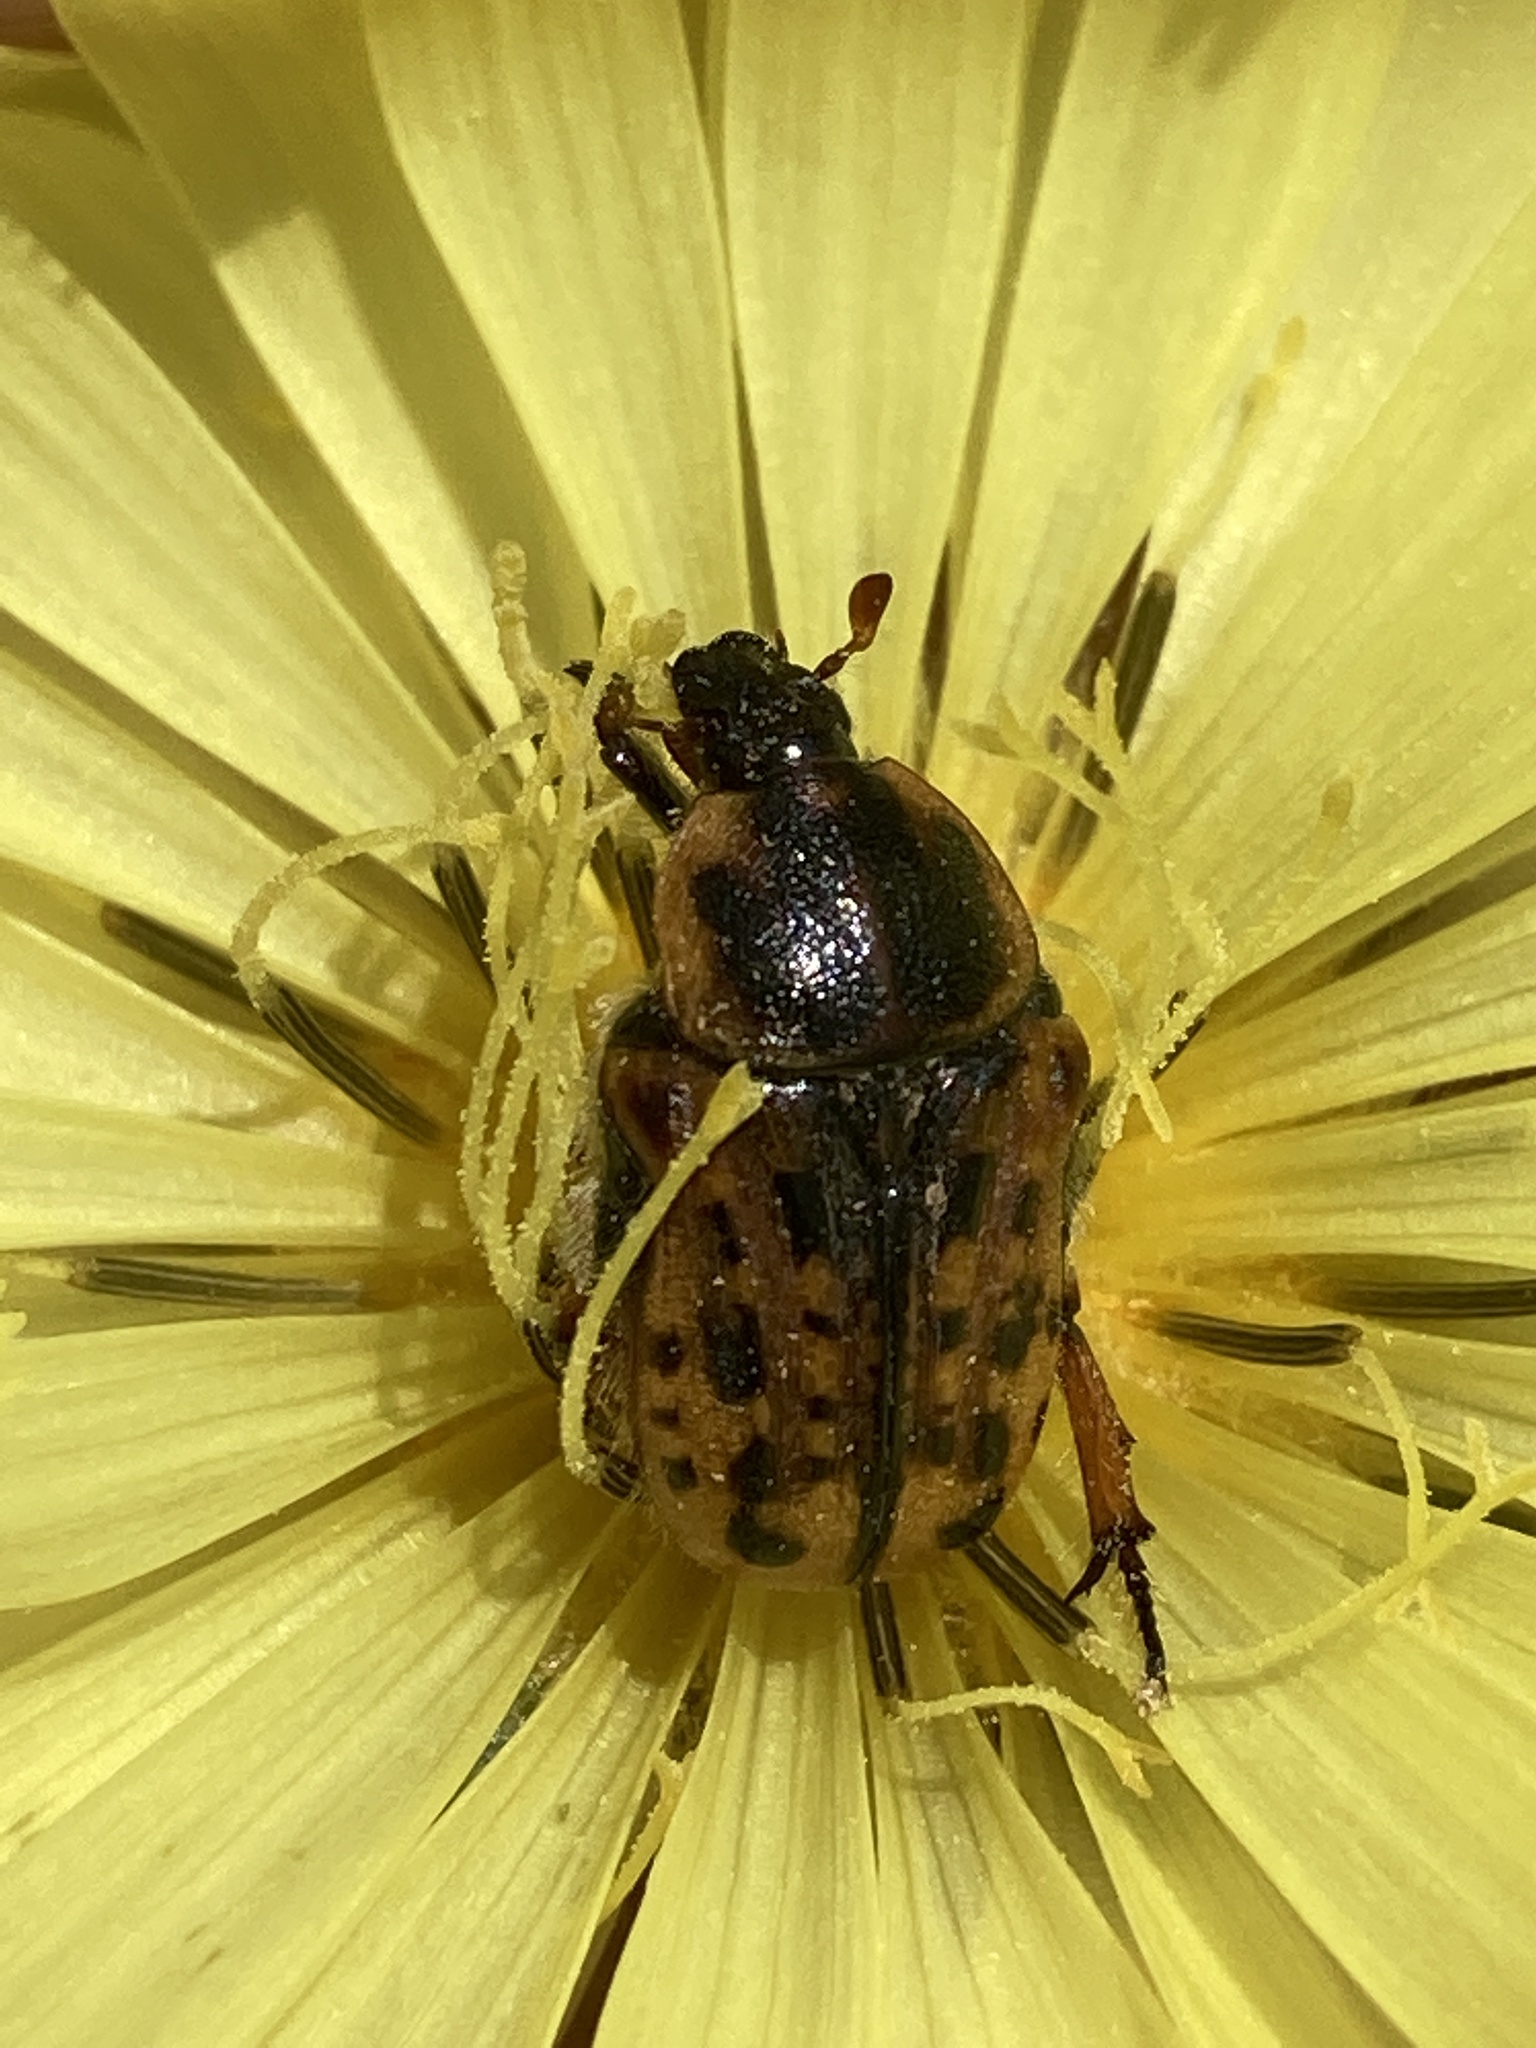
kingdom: Animalia
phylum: Arthropoda
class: Insecta
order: Coleoptera
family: Scarabaeidae
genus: Euphoria
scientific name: Euphoria kernii
